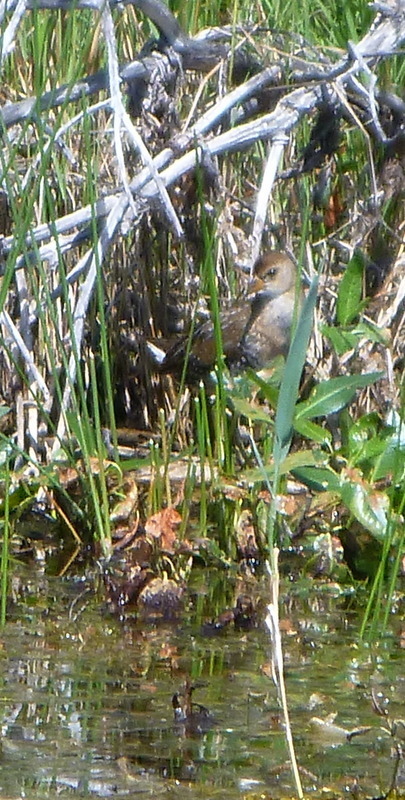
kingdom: Animalia
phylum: Chordata
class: Aves
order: Gruiformes
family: Rallidae
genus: Porzana
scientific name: Porzana carolina
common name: Sora
